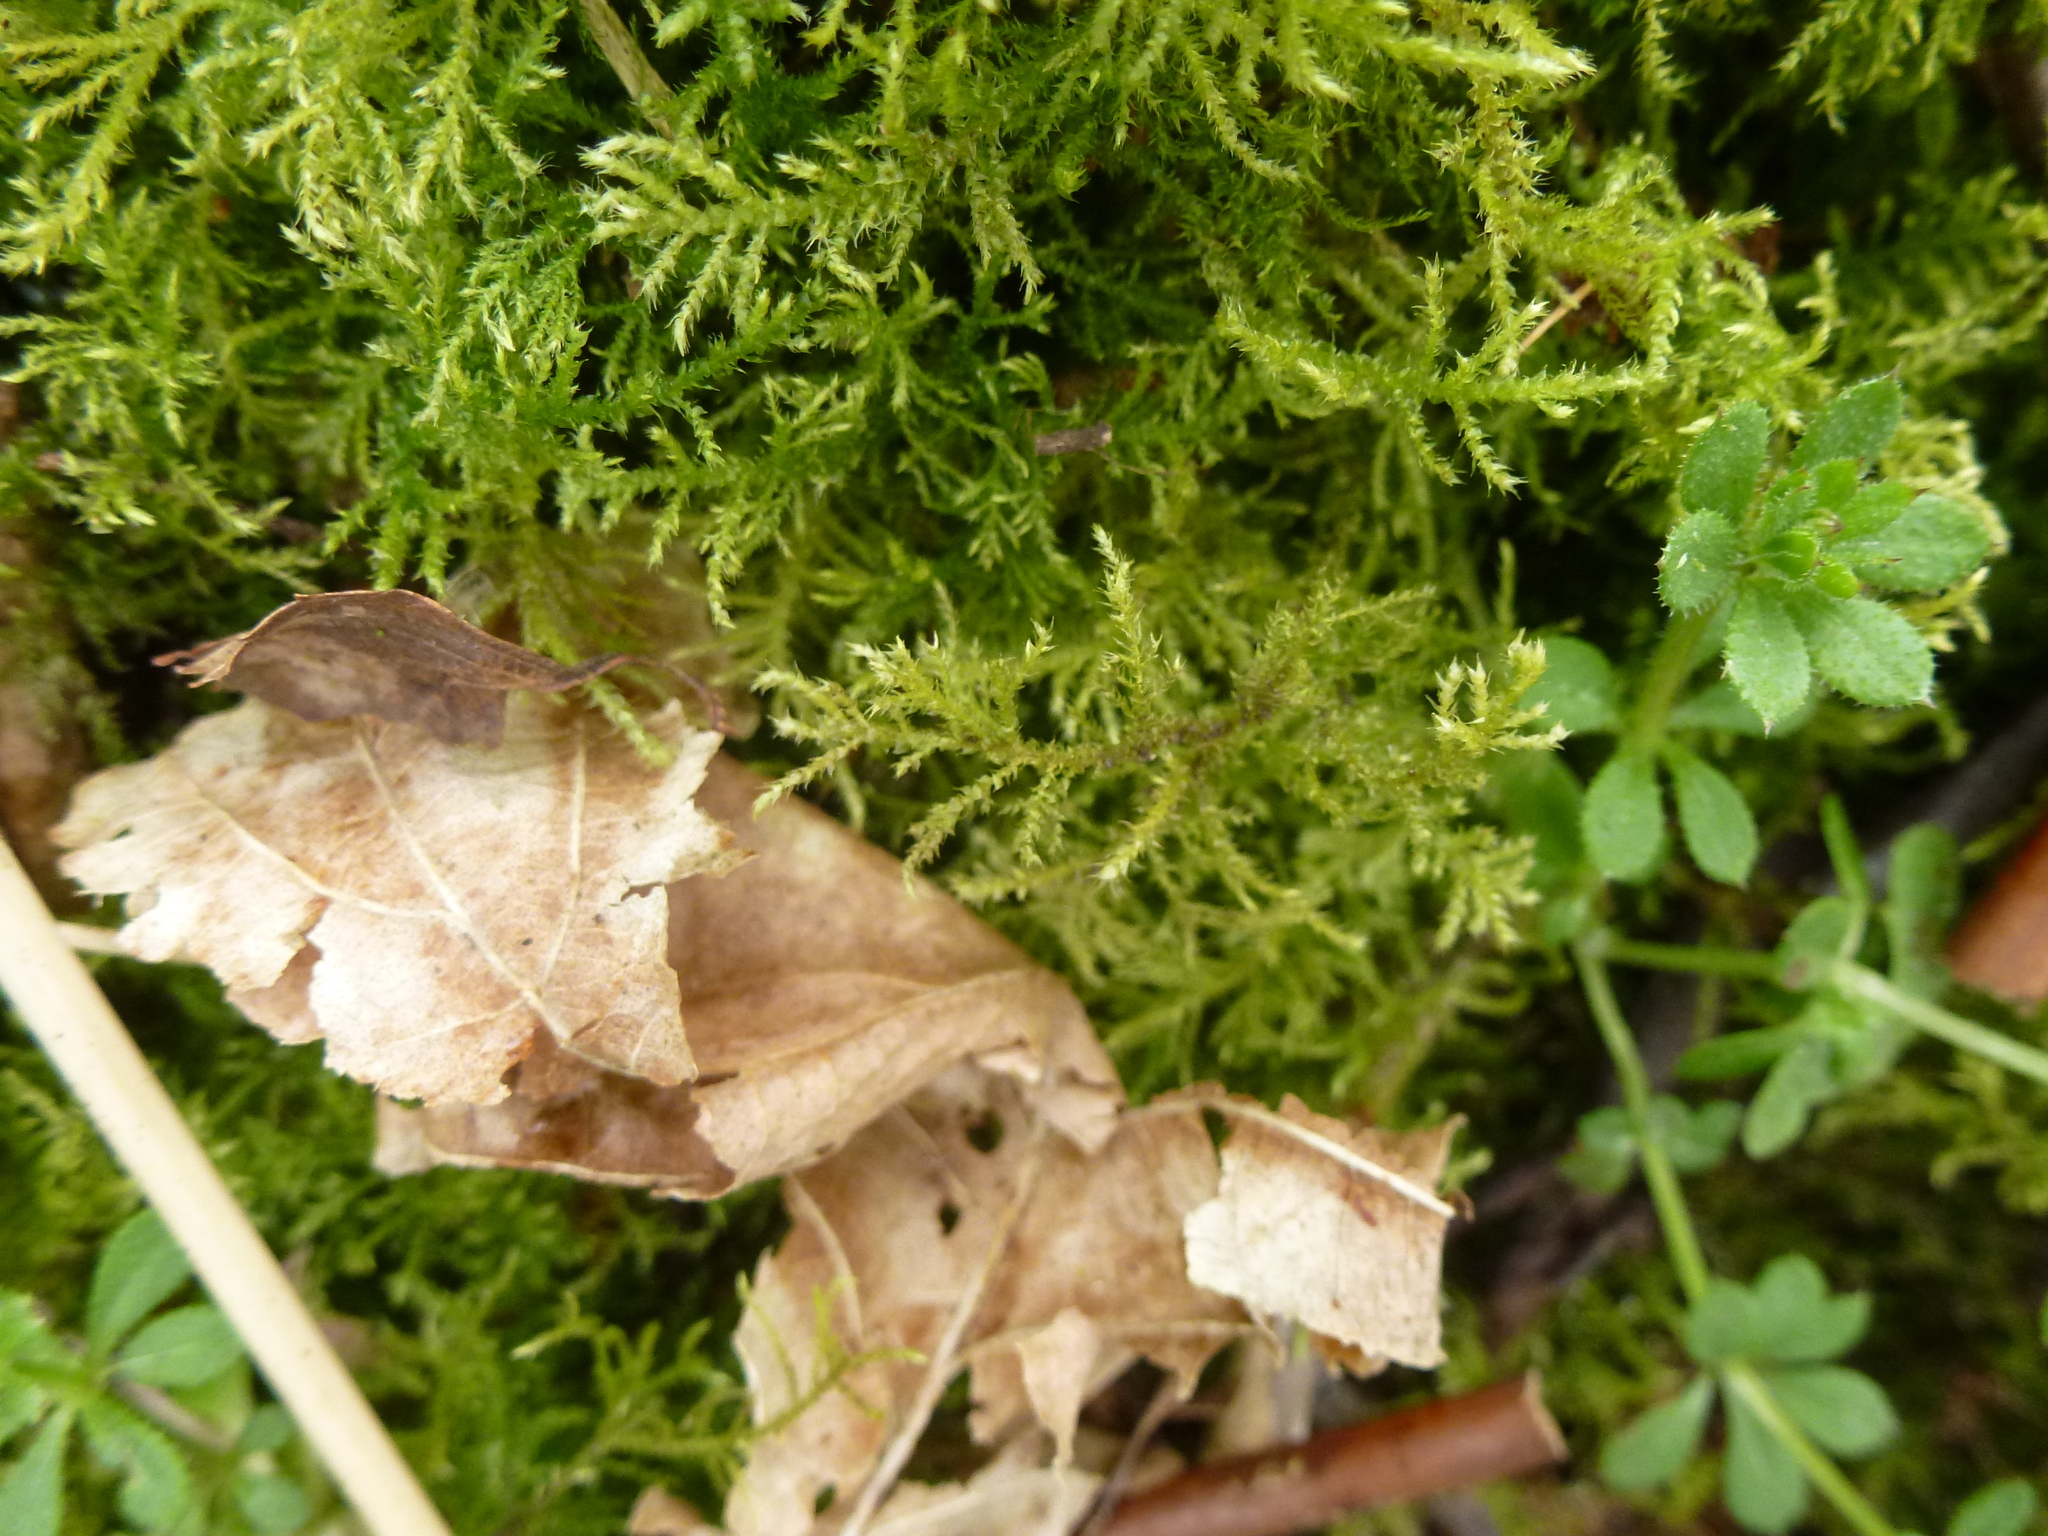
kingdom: Plantae
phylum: Bryophyta
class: Bryopsida
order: Hypnales
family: Brachytheciaceae
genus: Kindbergia
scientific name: Kindbergia praelonga
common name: Slender beaked moss
